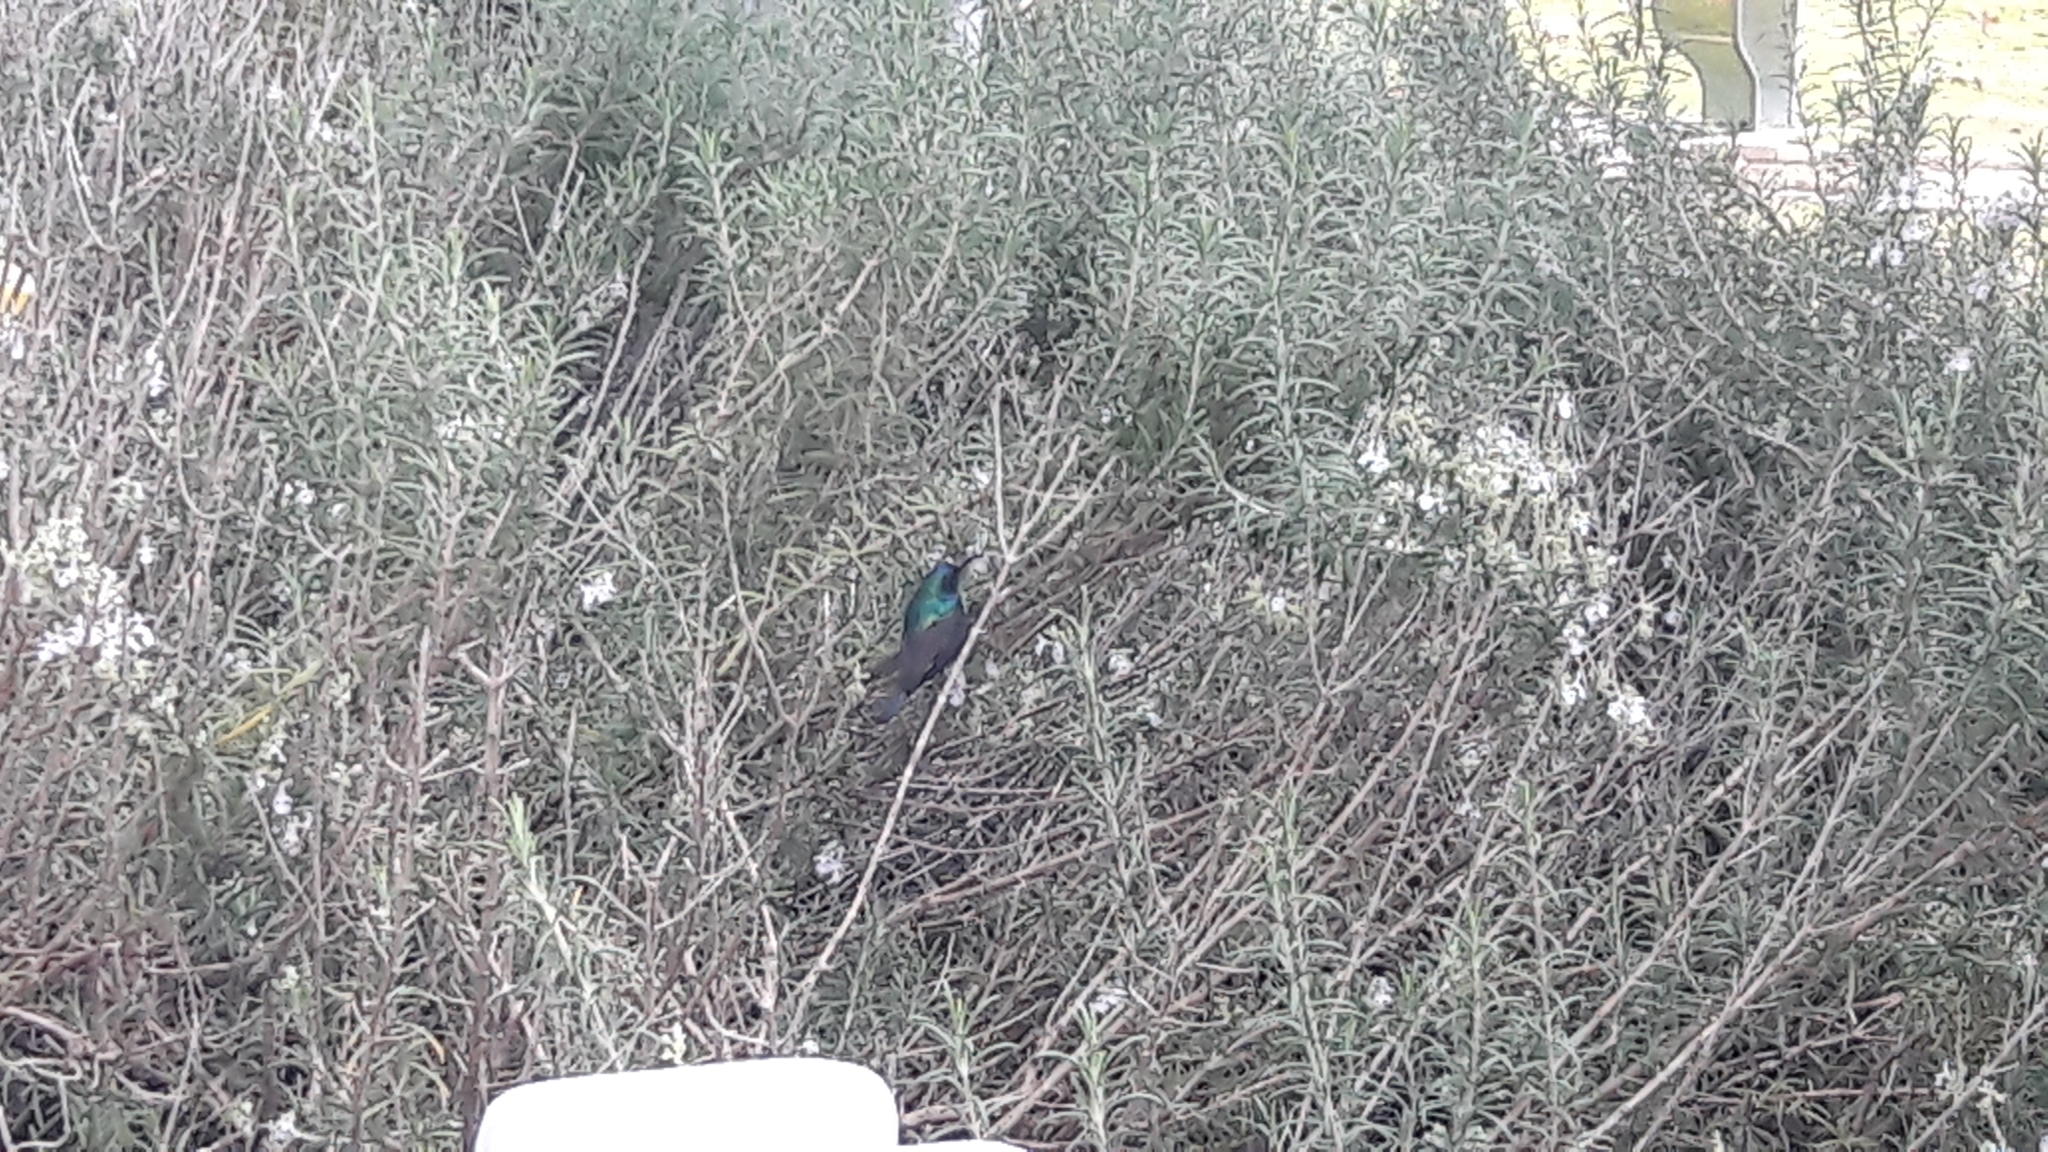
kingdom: Animalia
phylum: Chordata
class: Aves
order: Passeriformes
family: Nectariniidae
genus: Cinnyris
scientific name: Cinnyris osea
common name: Palestine sunbird
